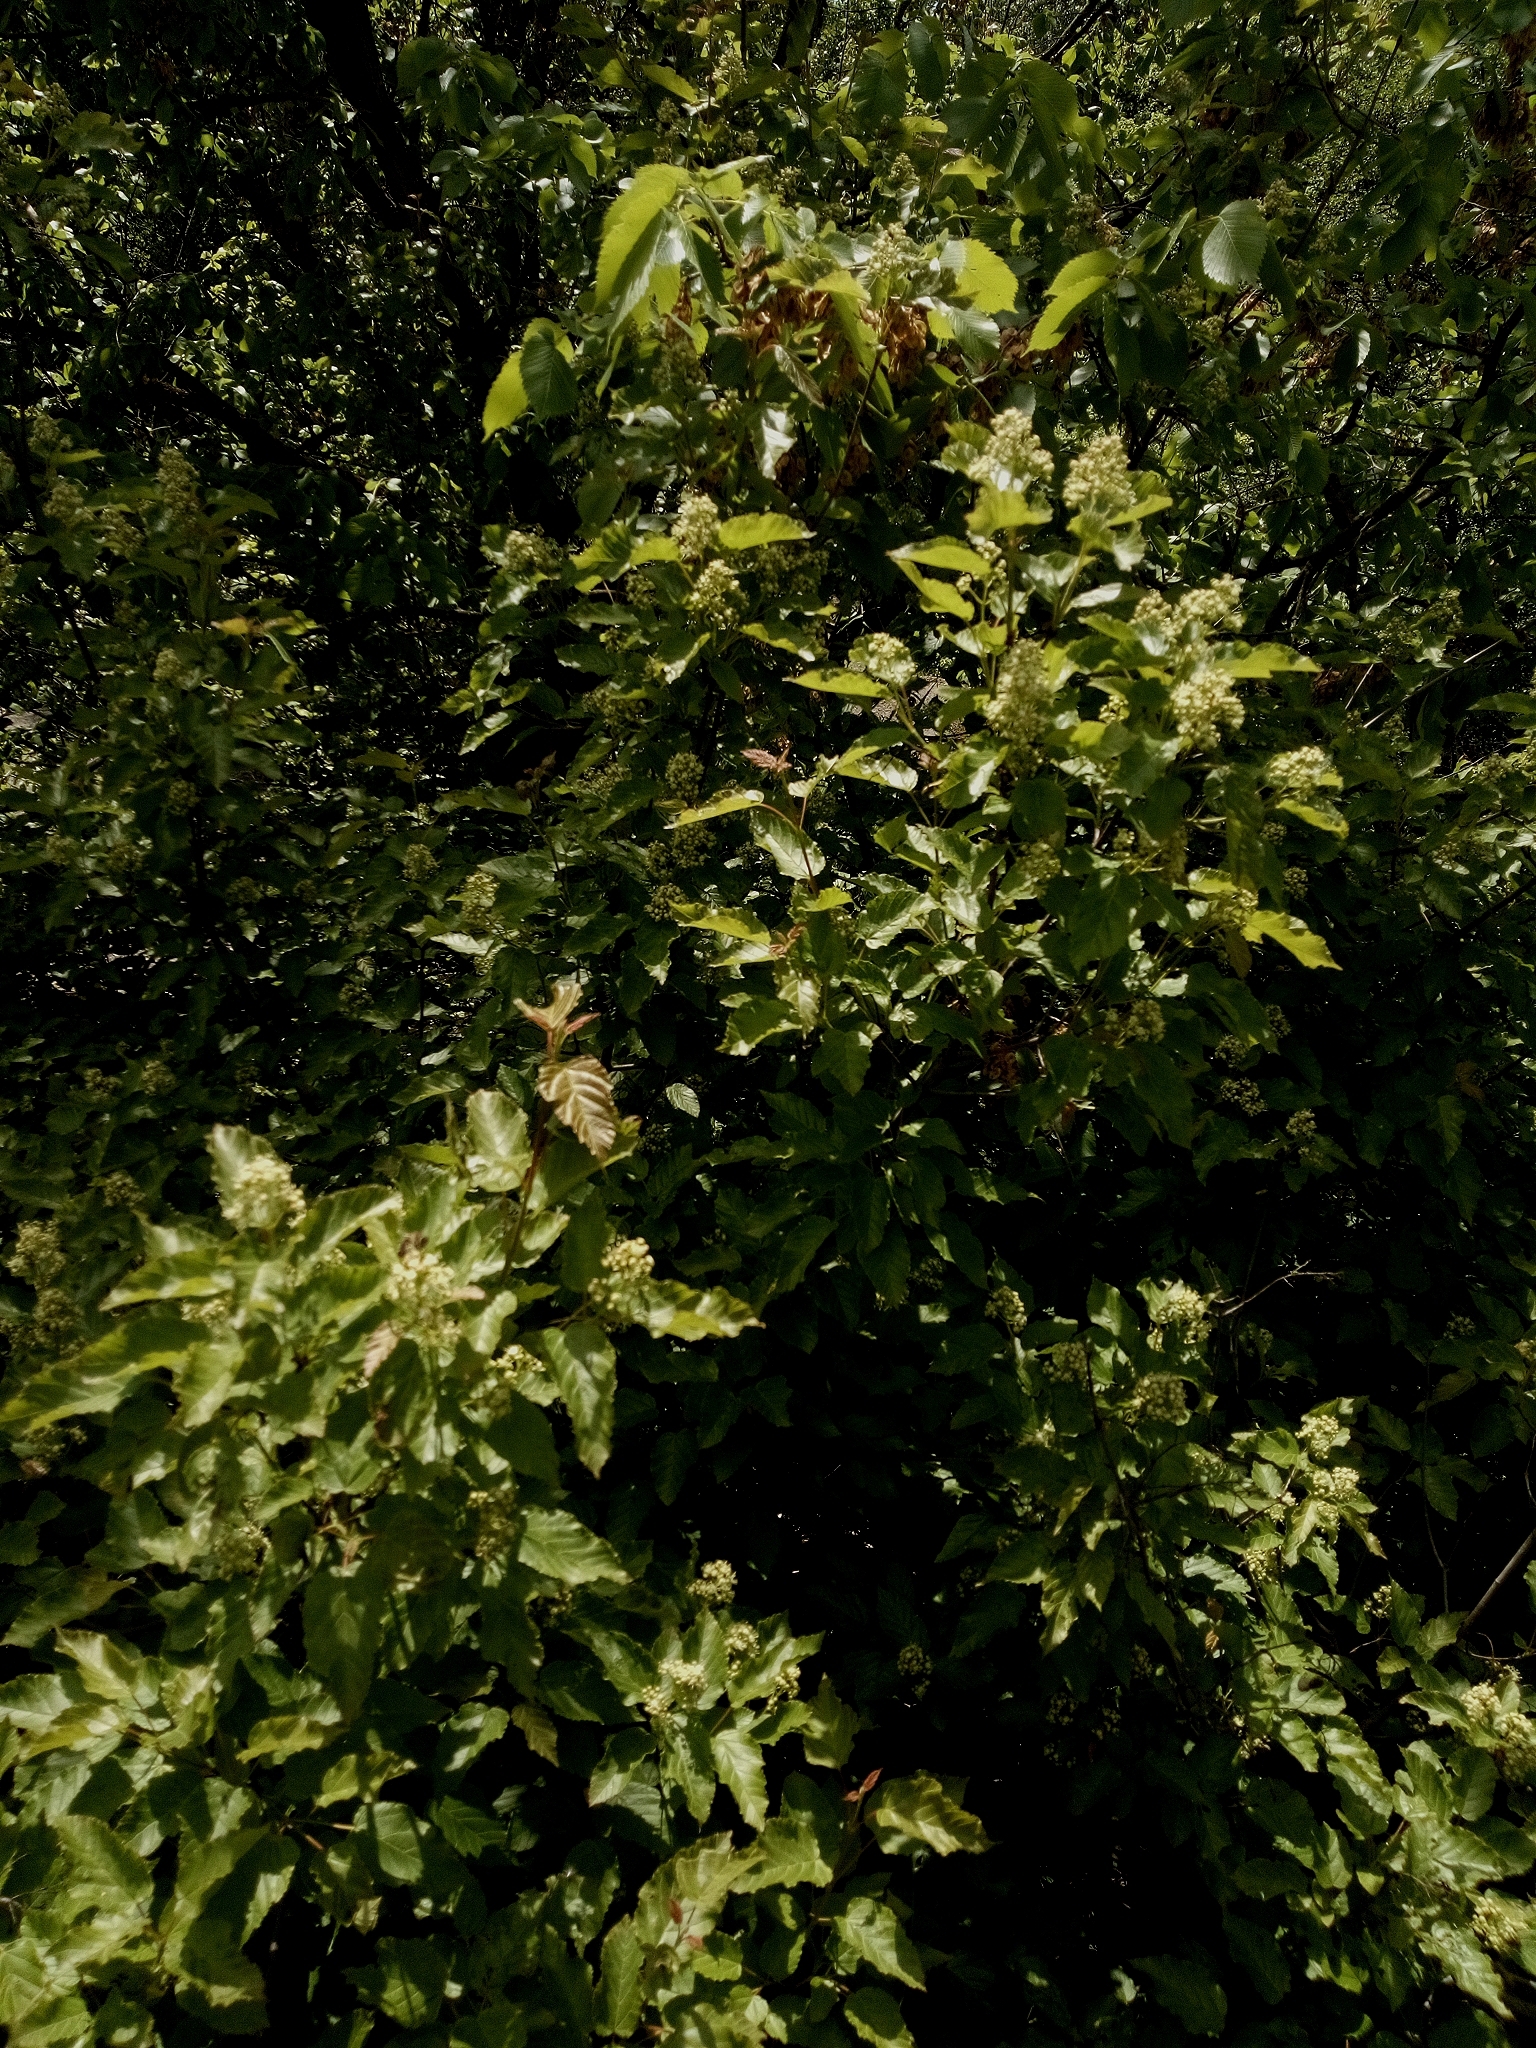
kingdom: Plantae
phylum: Tracheophyta
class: Magnoliopsida
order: Sapindales
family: Sapindaceae
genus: Acer
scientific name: Acer tataricum
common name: Tartar maple
